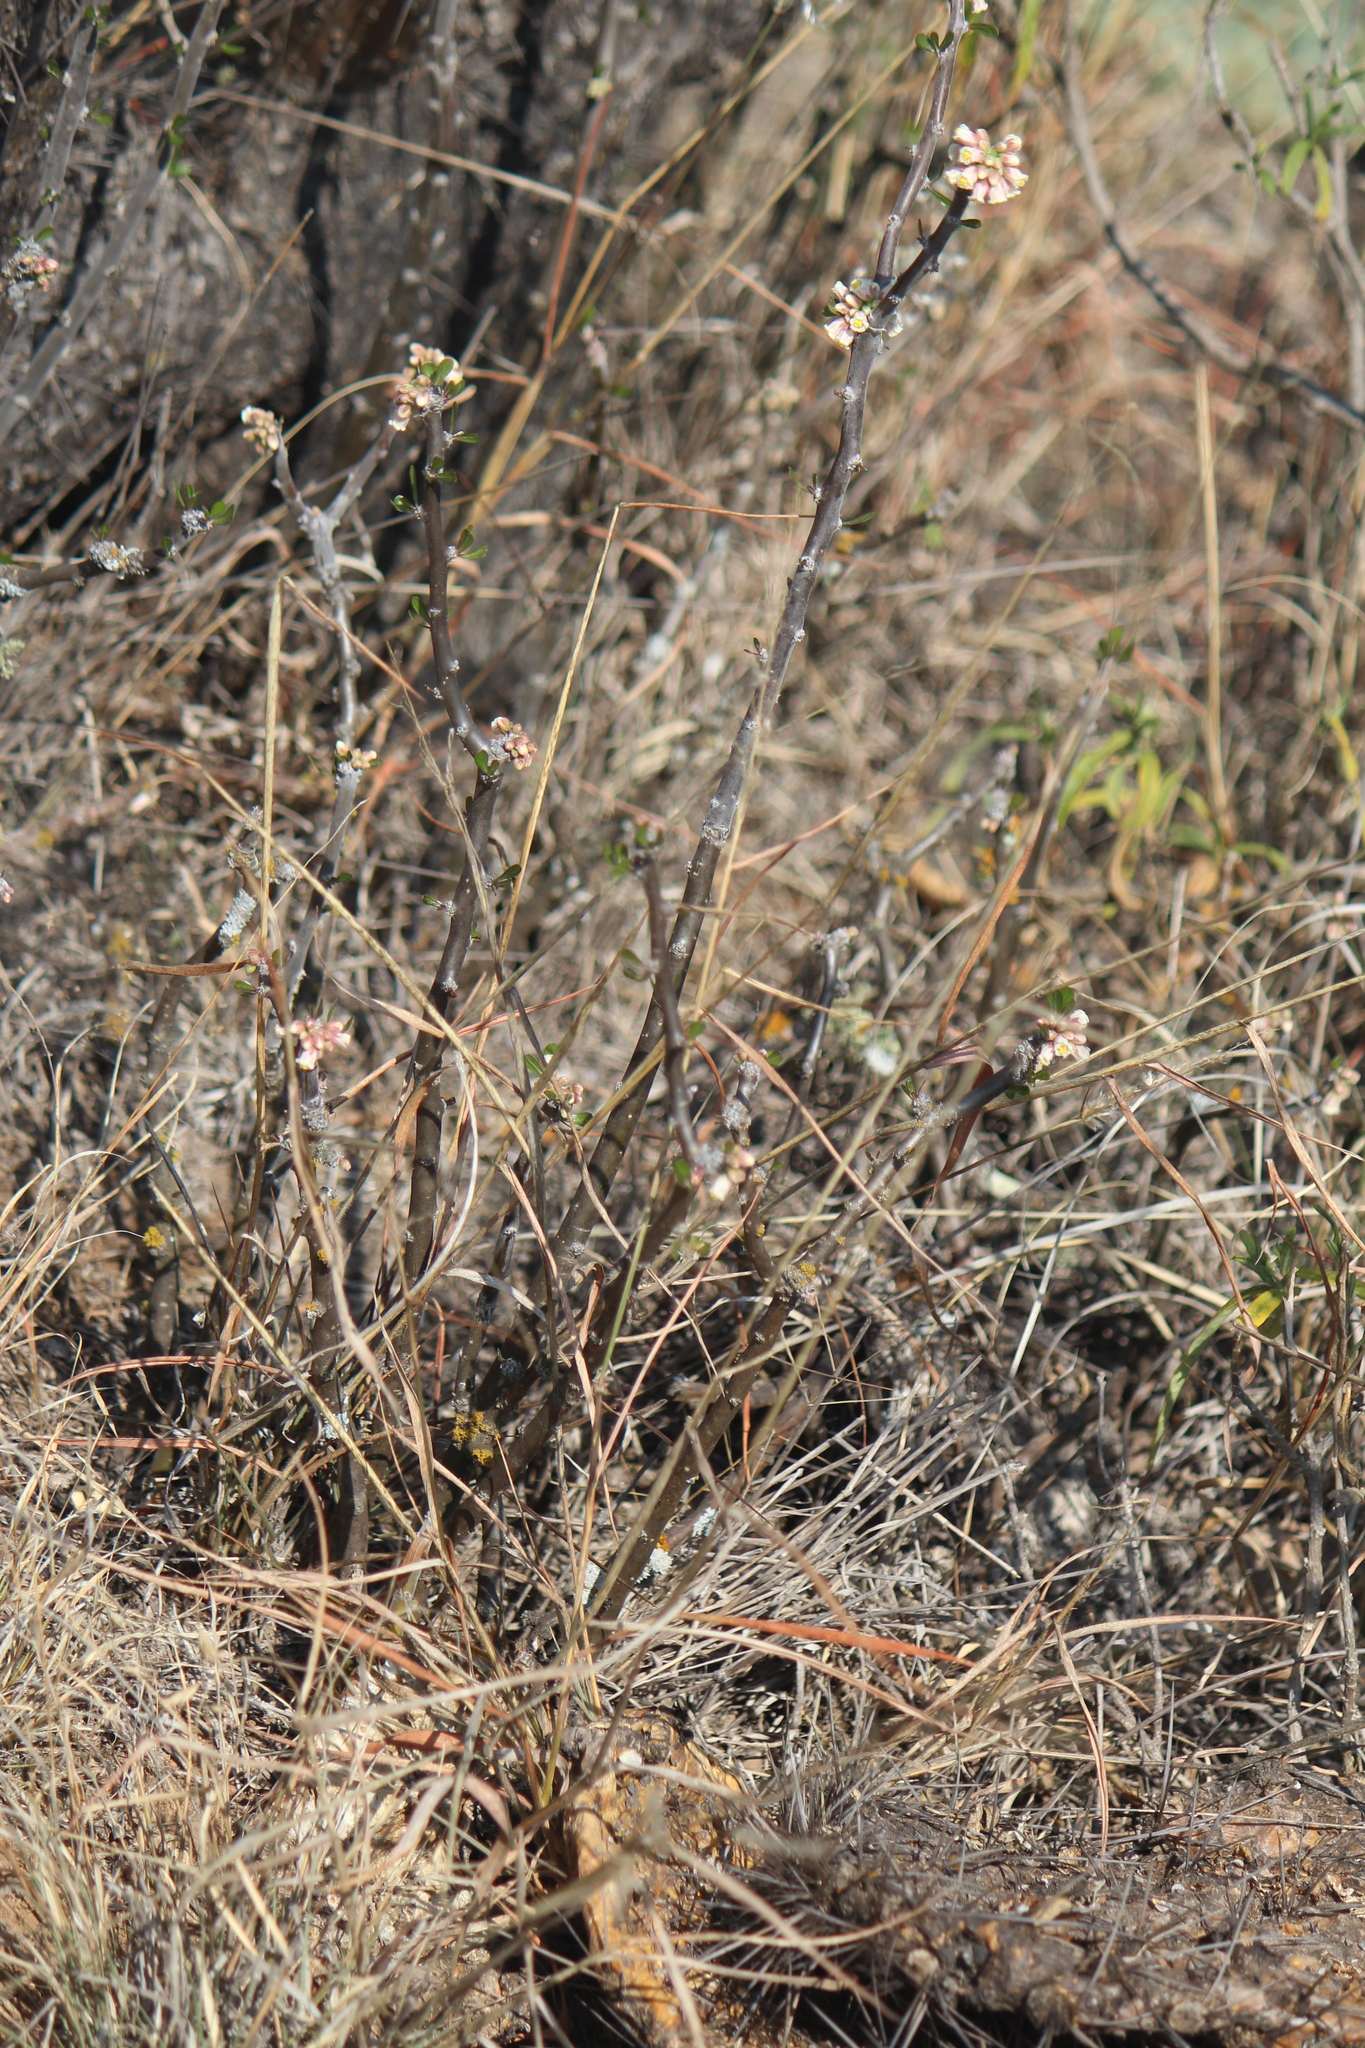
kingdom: Plantae
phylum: Tracheophyta
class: Magnoliopsida
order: Malpighiales
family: Euphorbiaceae
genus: Jatropha
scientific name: Jatropha dioica
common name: Leatherstem
